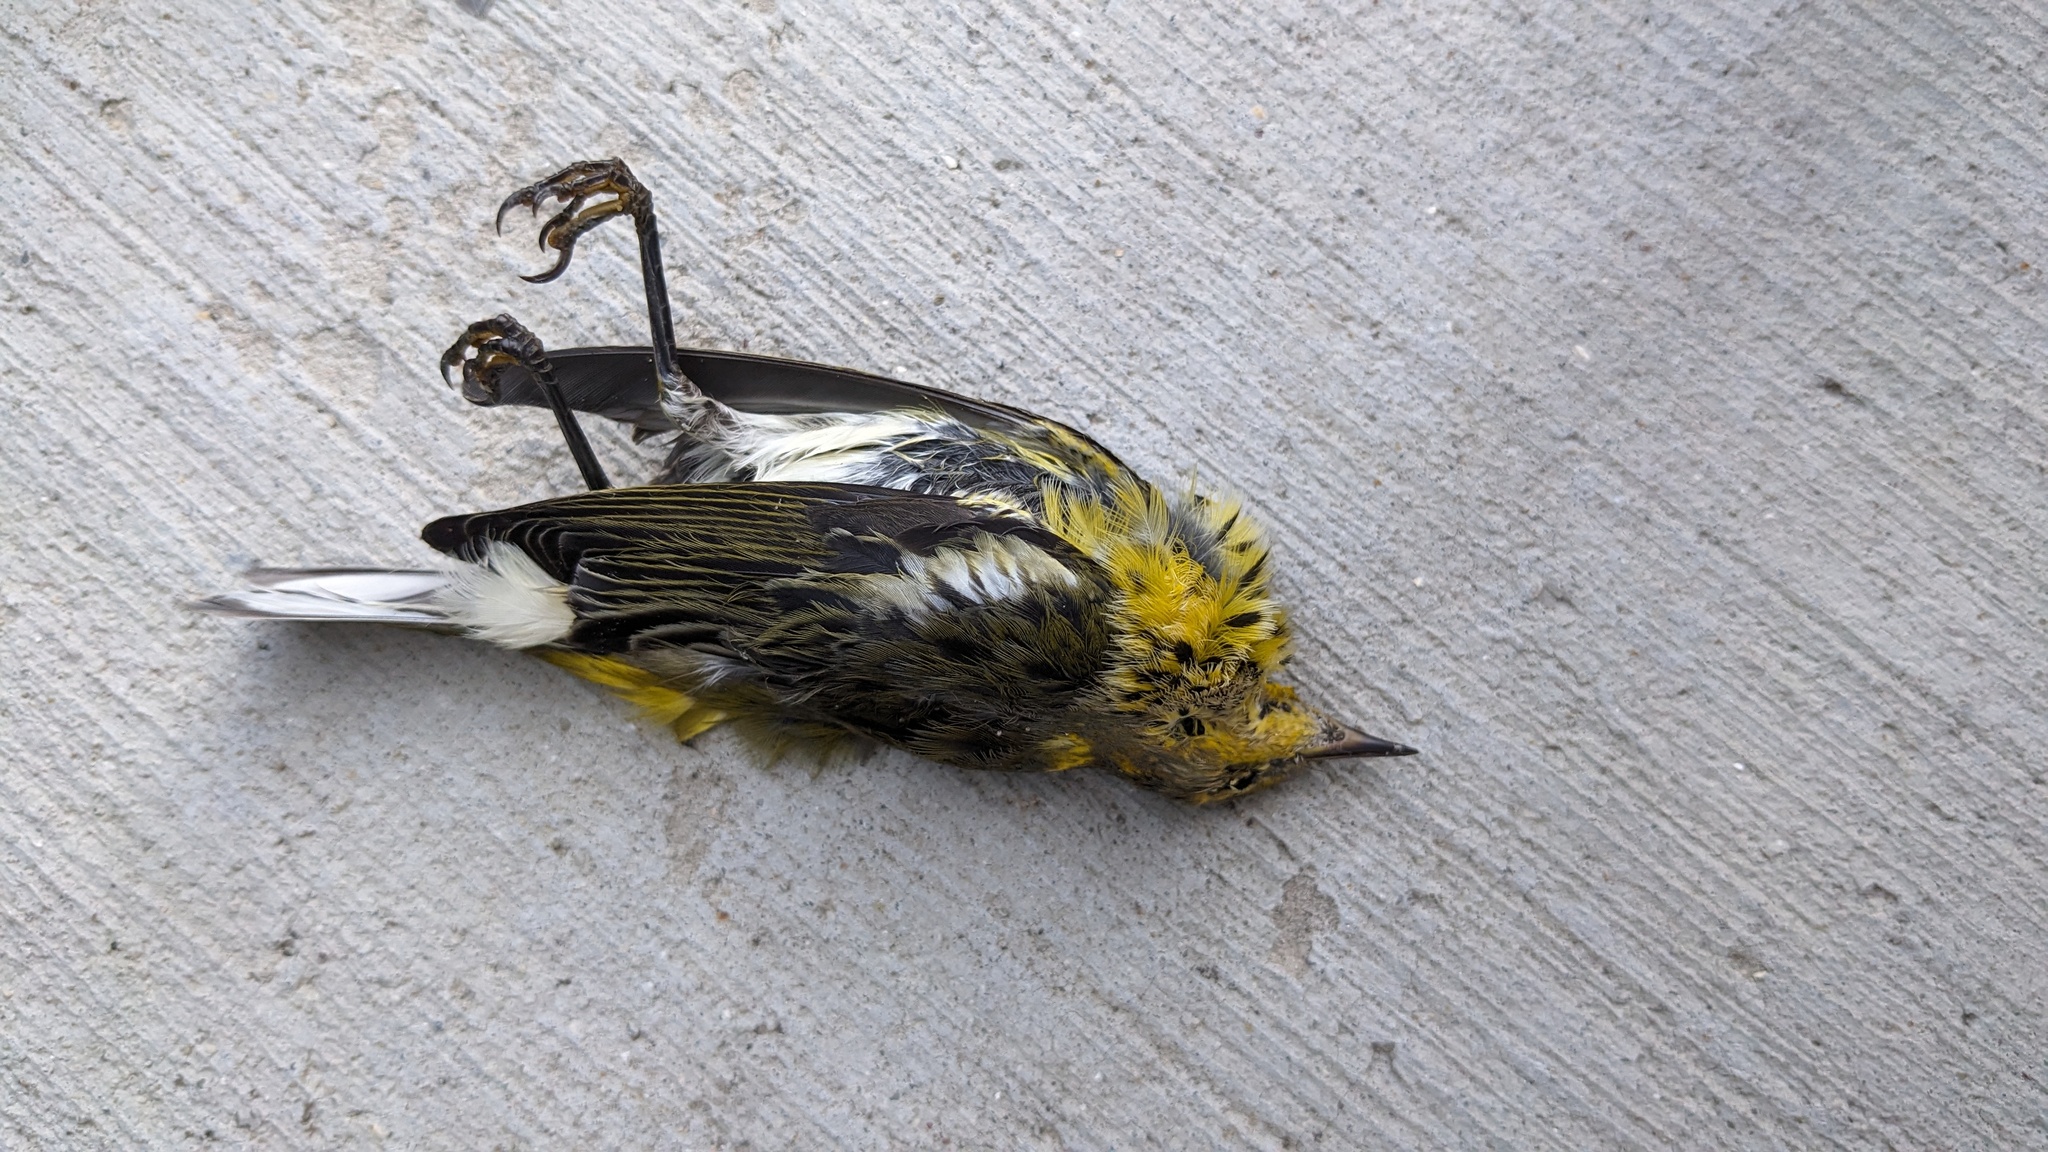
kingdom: Animalia
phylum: Chordata
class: Aves
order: Passeriformes
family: Parulidae
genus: Setophaga
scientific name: Setophaga tigrina
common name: Cape may warbler
